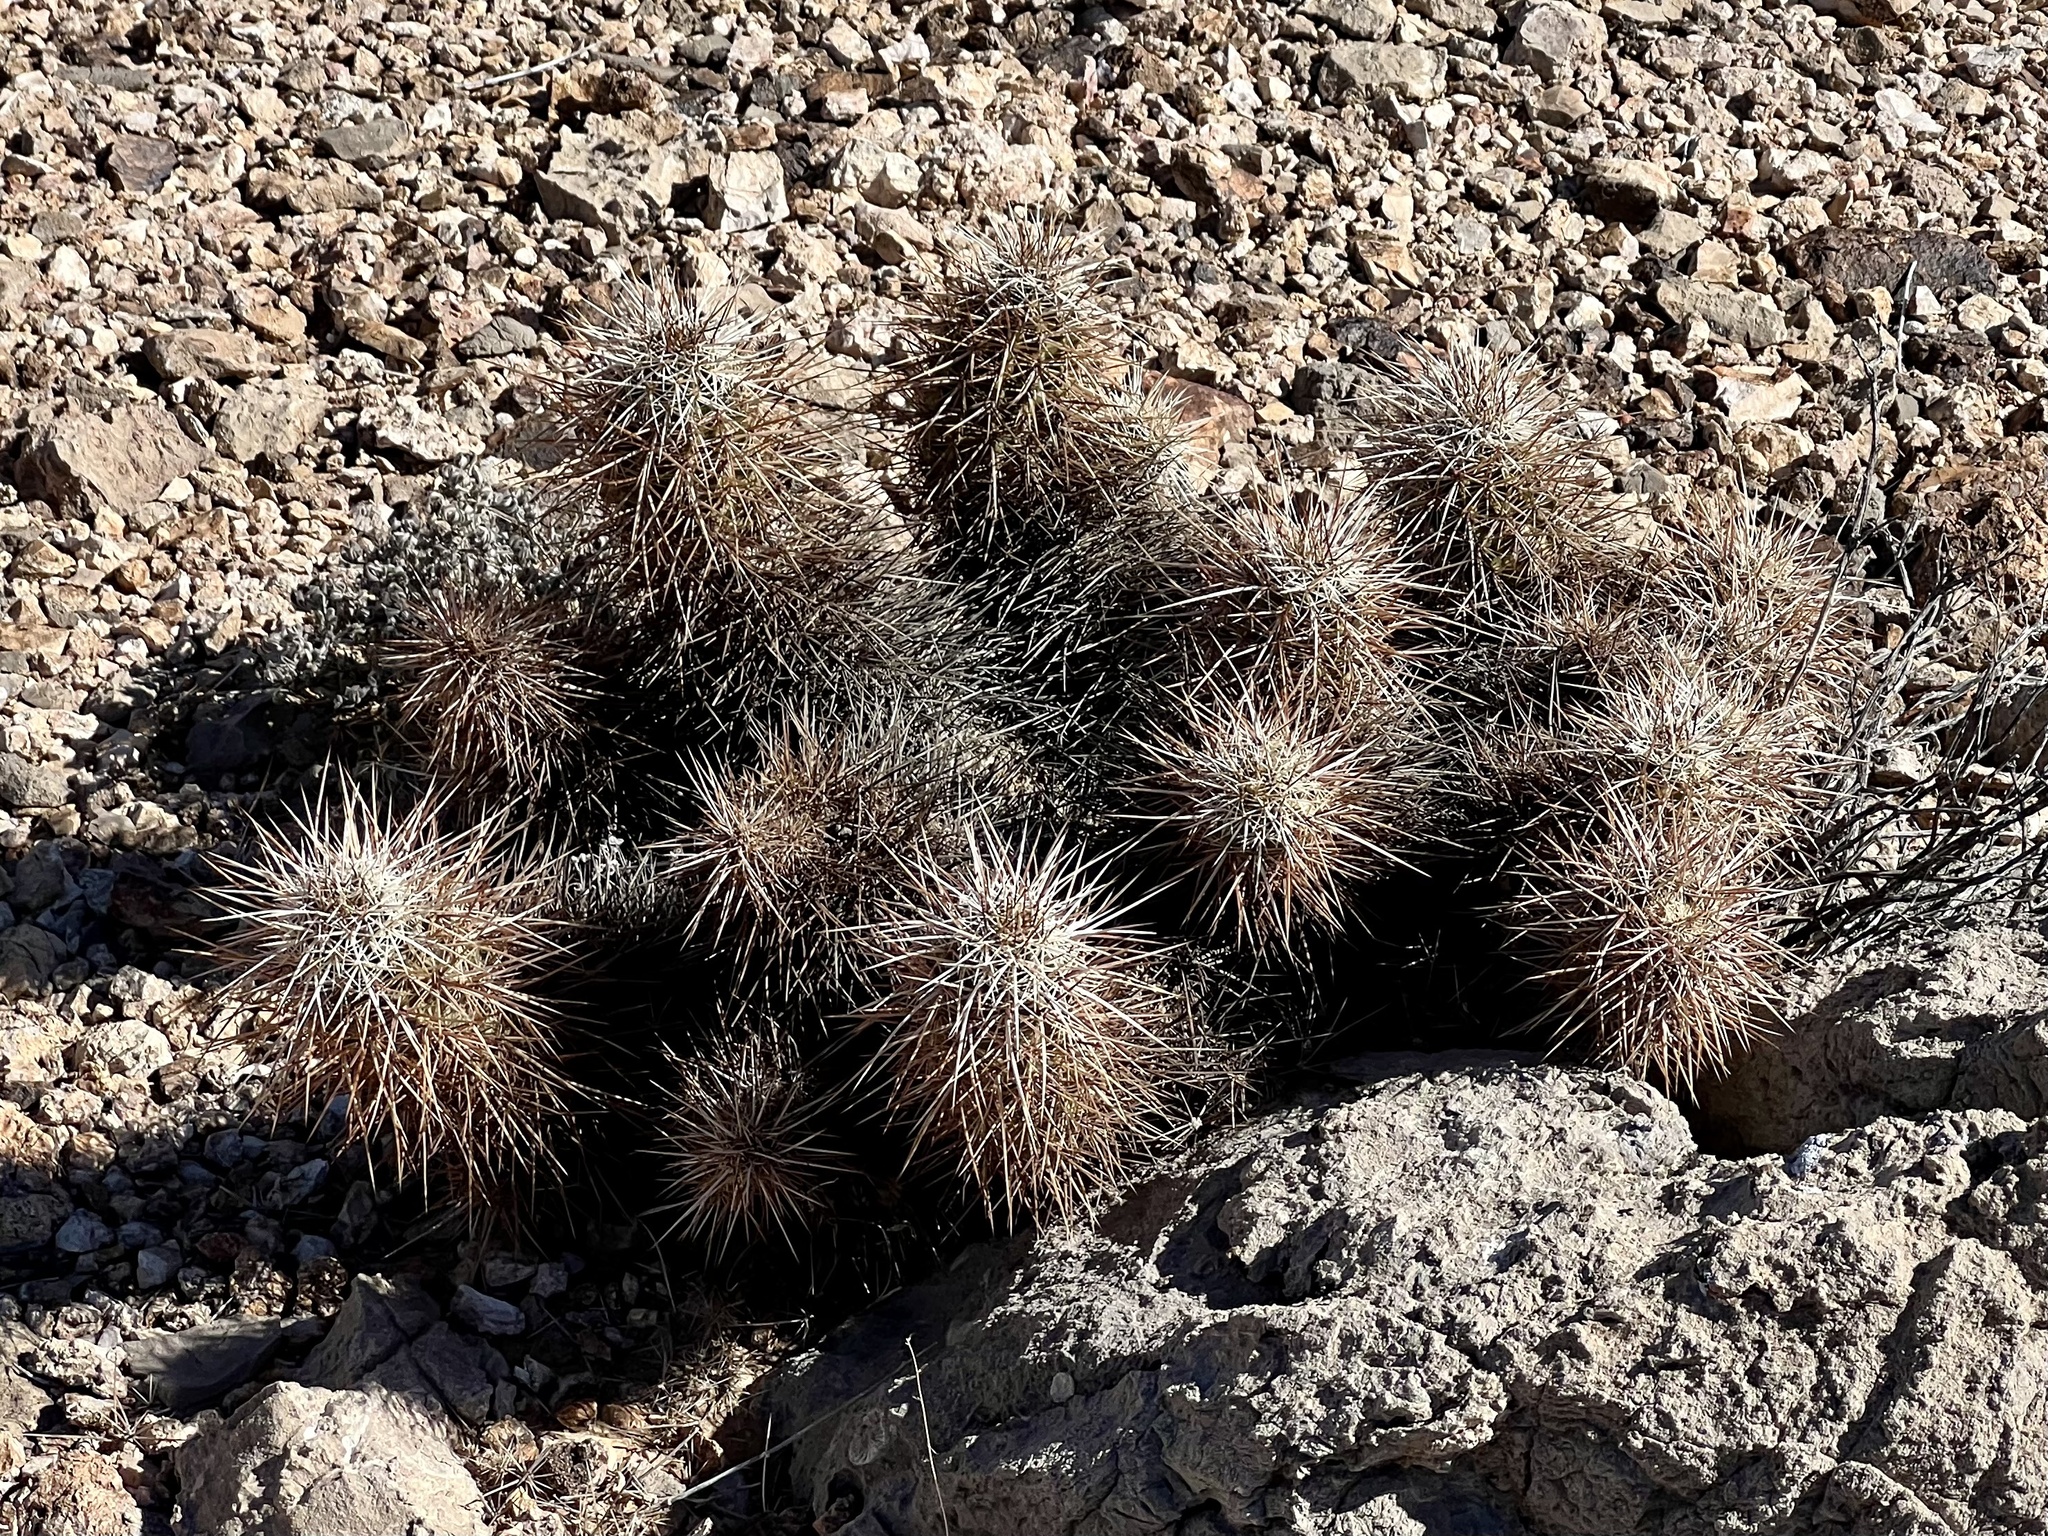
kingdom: Plantae
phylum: Tracheophyta
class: Magnoliopsida
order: Caryophyllales
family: Cactaceae
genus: Echinocereus
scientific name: Echinocereus engelmannii
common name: Engelmann's hedgehog cactus
